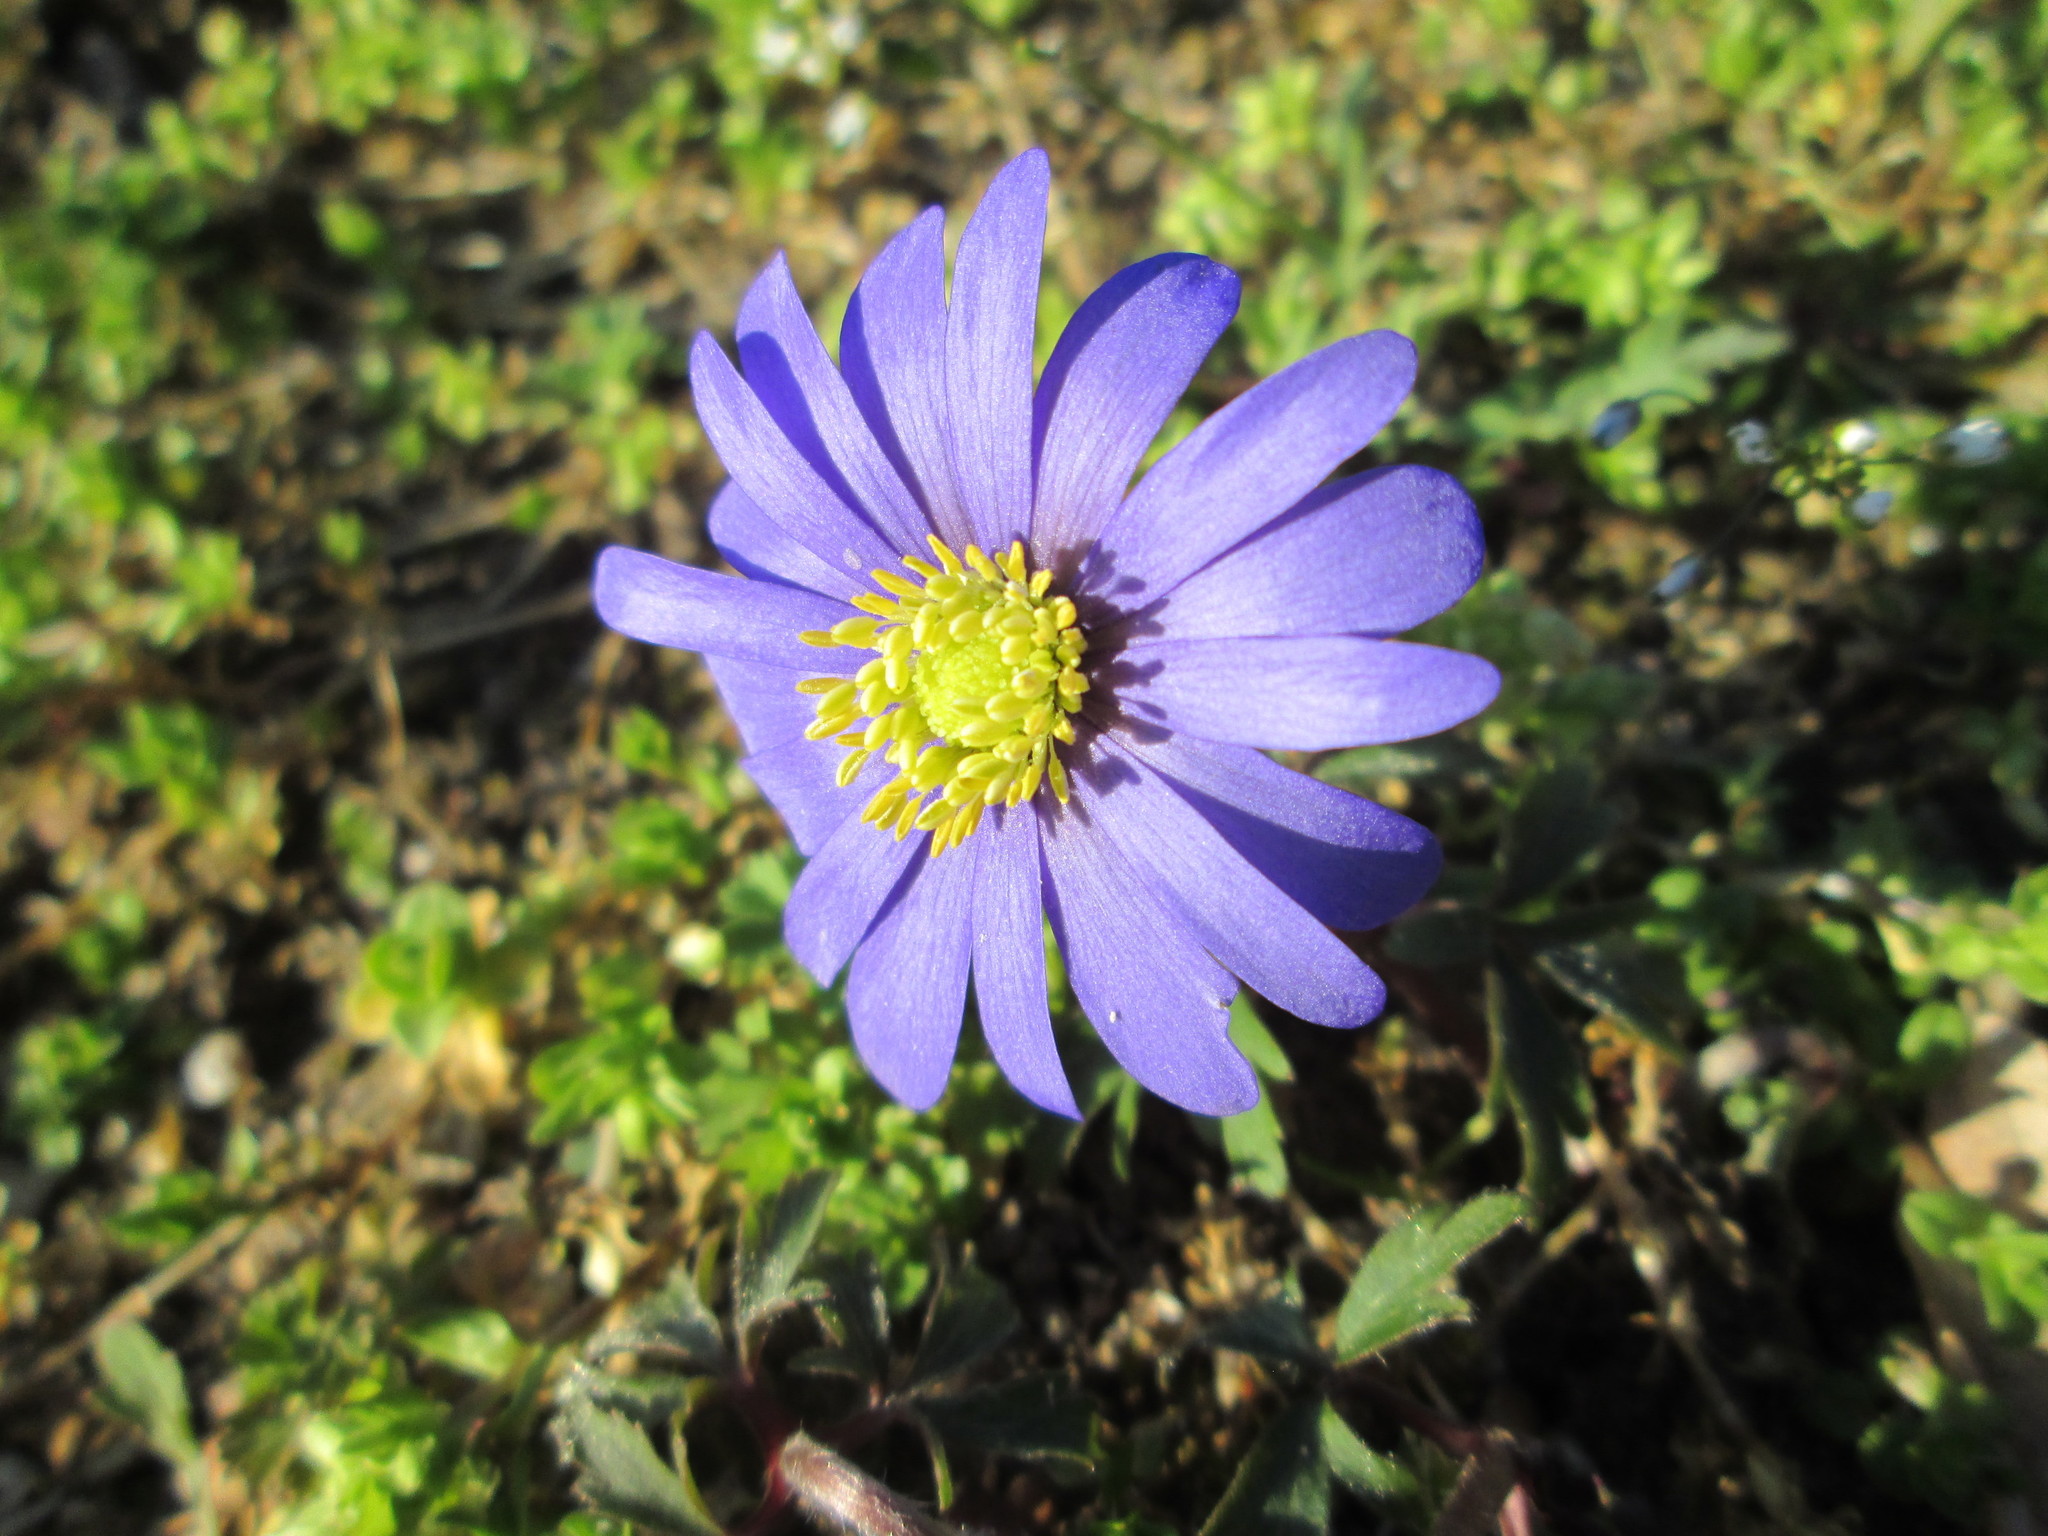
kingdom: Plantae
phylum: Tracheophyta
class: Magnoliopsida
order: Ranunculales
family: Ranunculaceae
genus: Anemone
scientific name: Anemone blanda
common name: Balkan anemone
